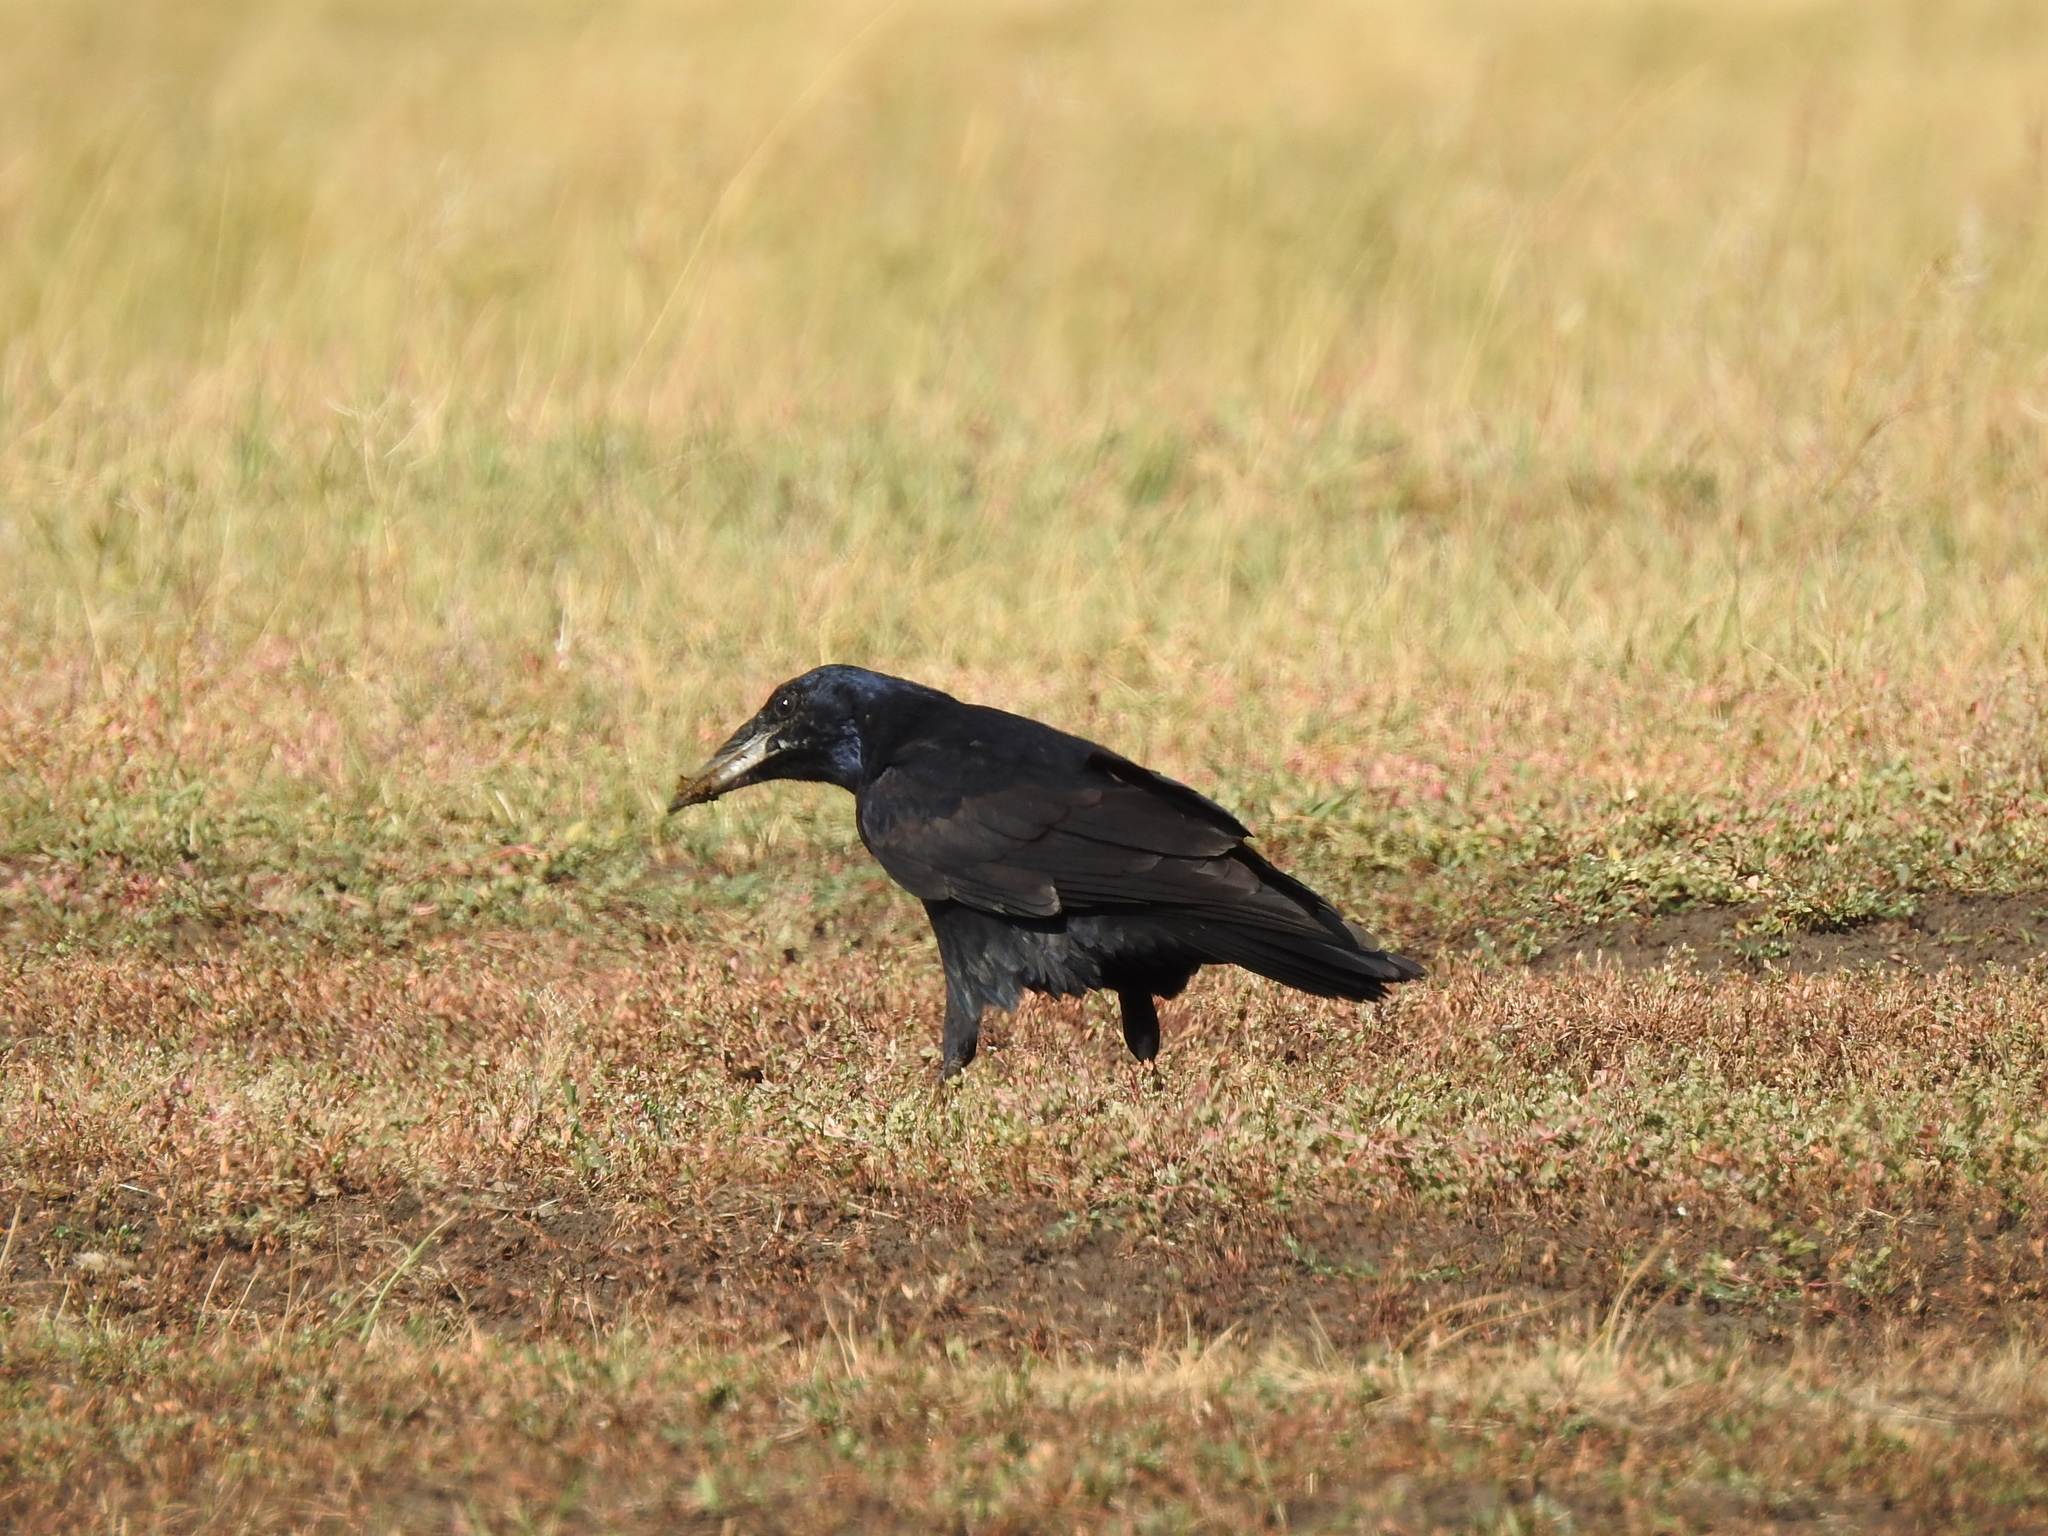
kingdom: Animalia
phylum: Chordata
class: Aves
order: Passeriformes
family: Corvidae
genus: Corvus
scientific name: Corvus frugilegus
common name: Rook
